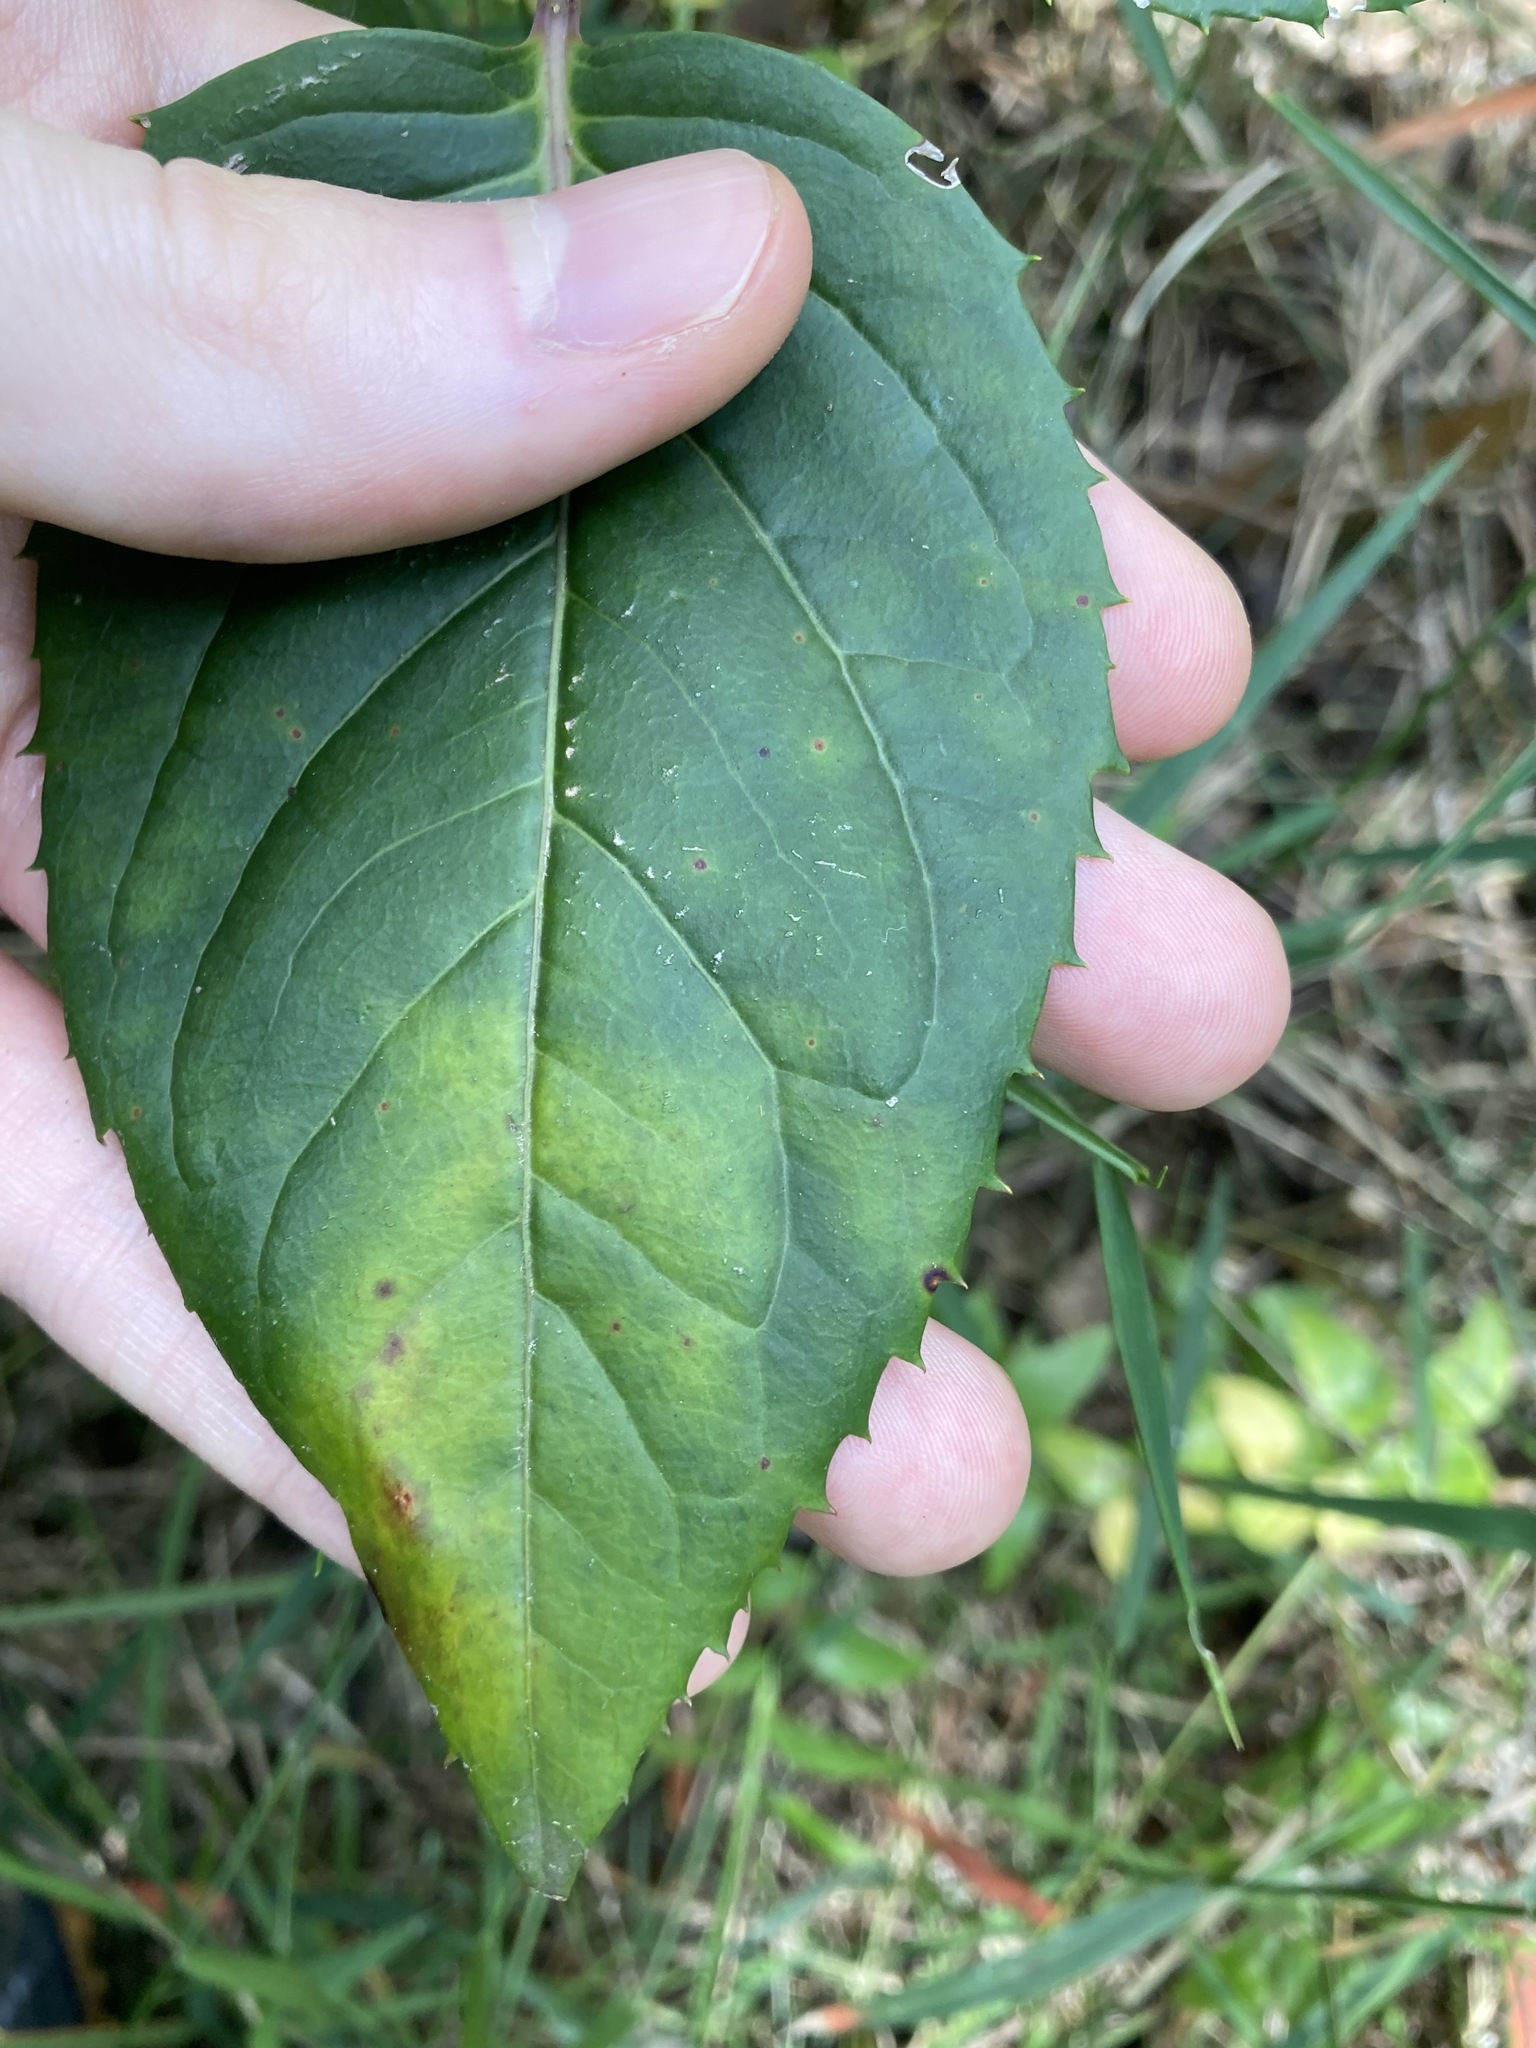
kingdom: Plantae
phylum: Tracheophyta
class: Magnoliopsida
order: Apiales
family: Araliaceae
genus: Polyscias
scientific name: Polyscias sambucifolia
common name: Elderberry-ash
